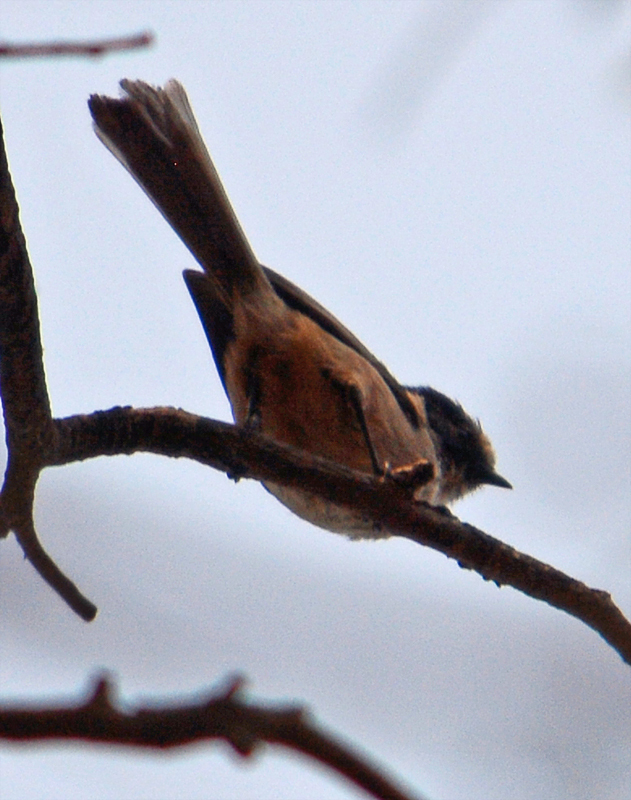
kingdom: Animalia
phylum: Chordata
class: Aves
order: Passeriformes
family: Aegithalidae
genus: Psaltriparus
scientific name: Psaltriparus minimus
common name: American bushtit
